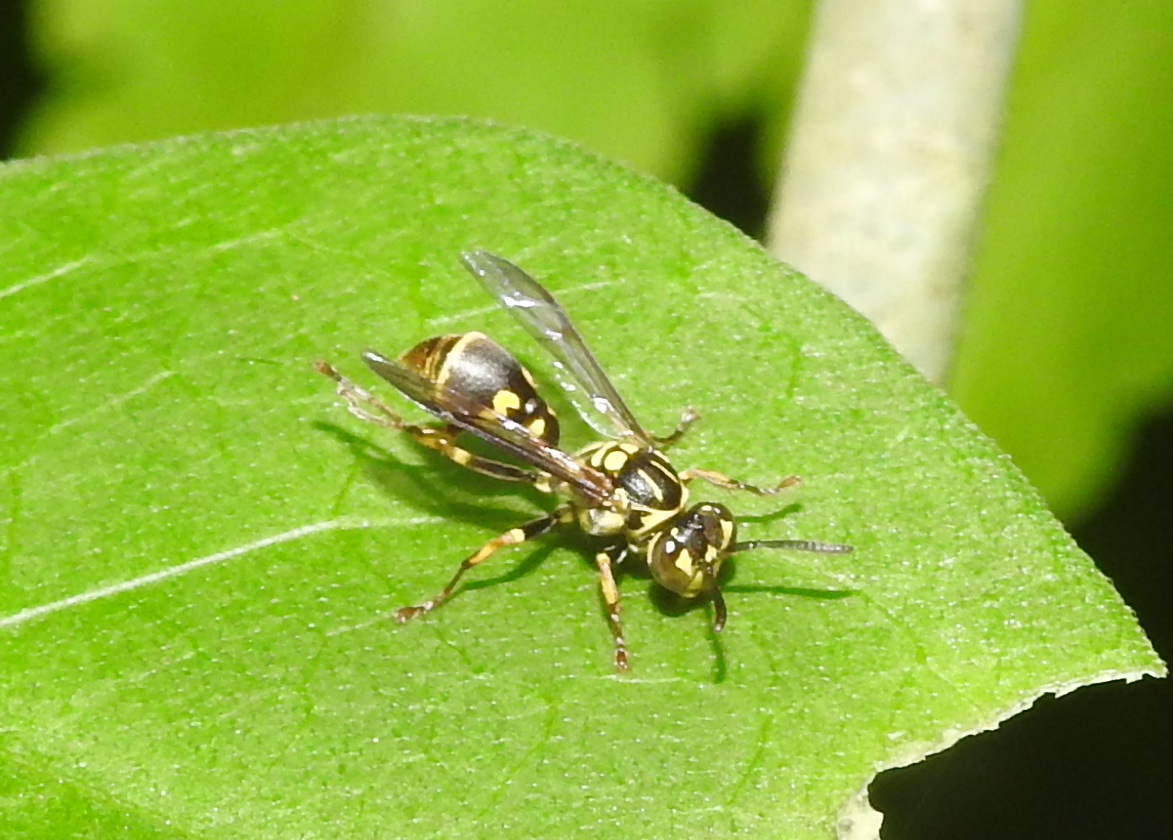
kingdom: Animalia
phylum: Arthropoda
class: Insecta
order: Hymenoptera
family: Vespidae
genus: Ropalidia
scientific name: Ropalidia flavopicta
